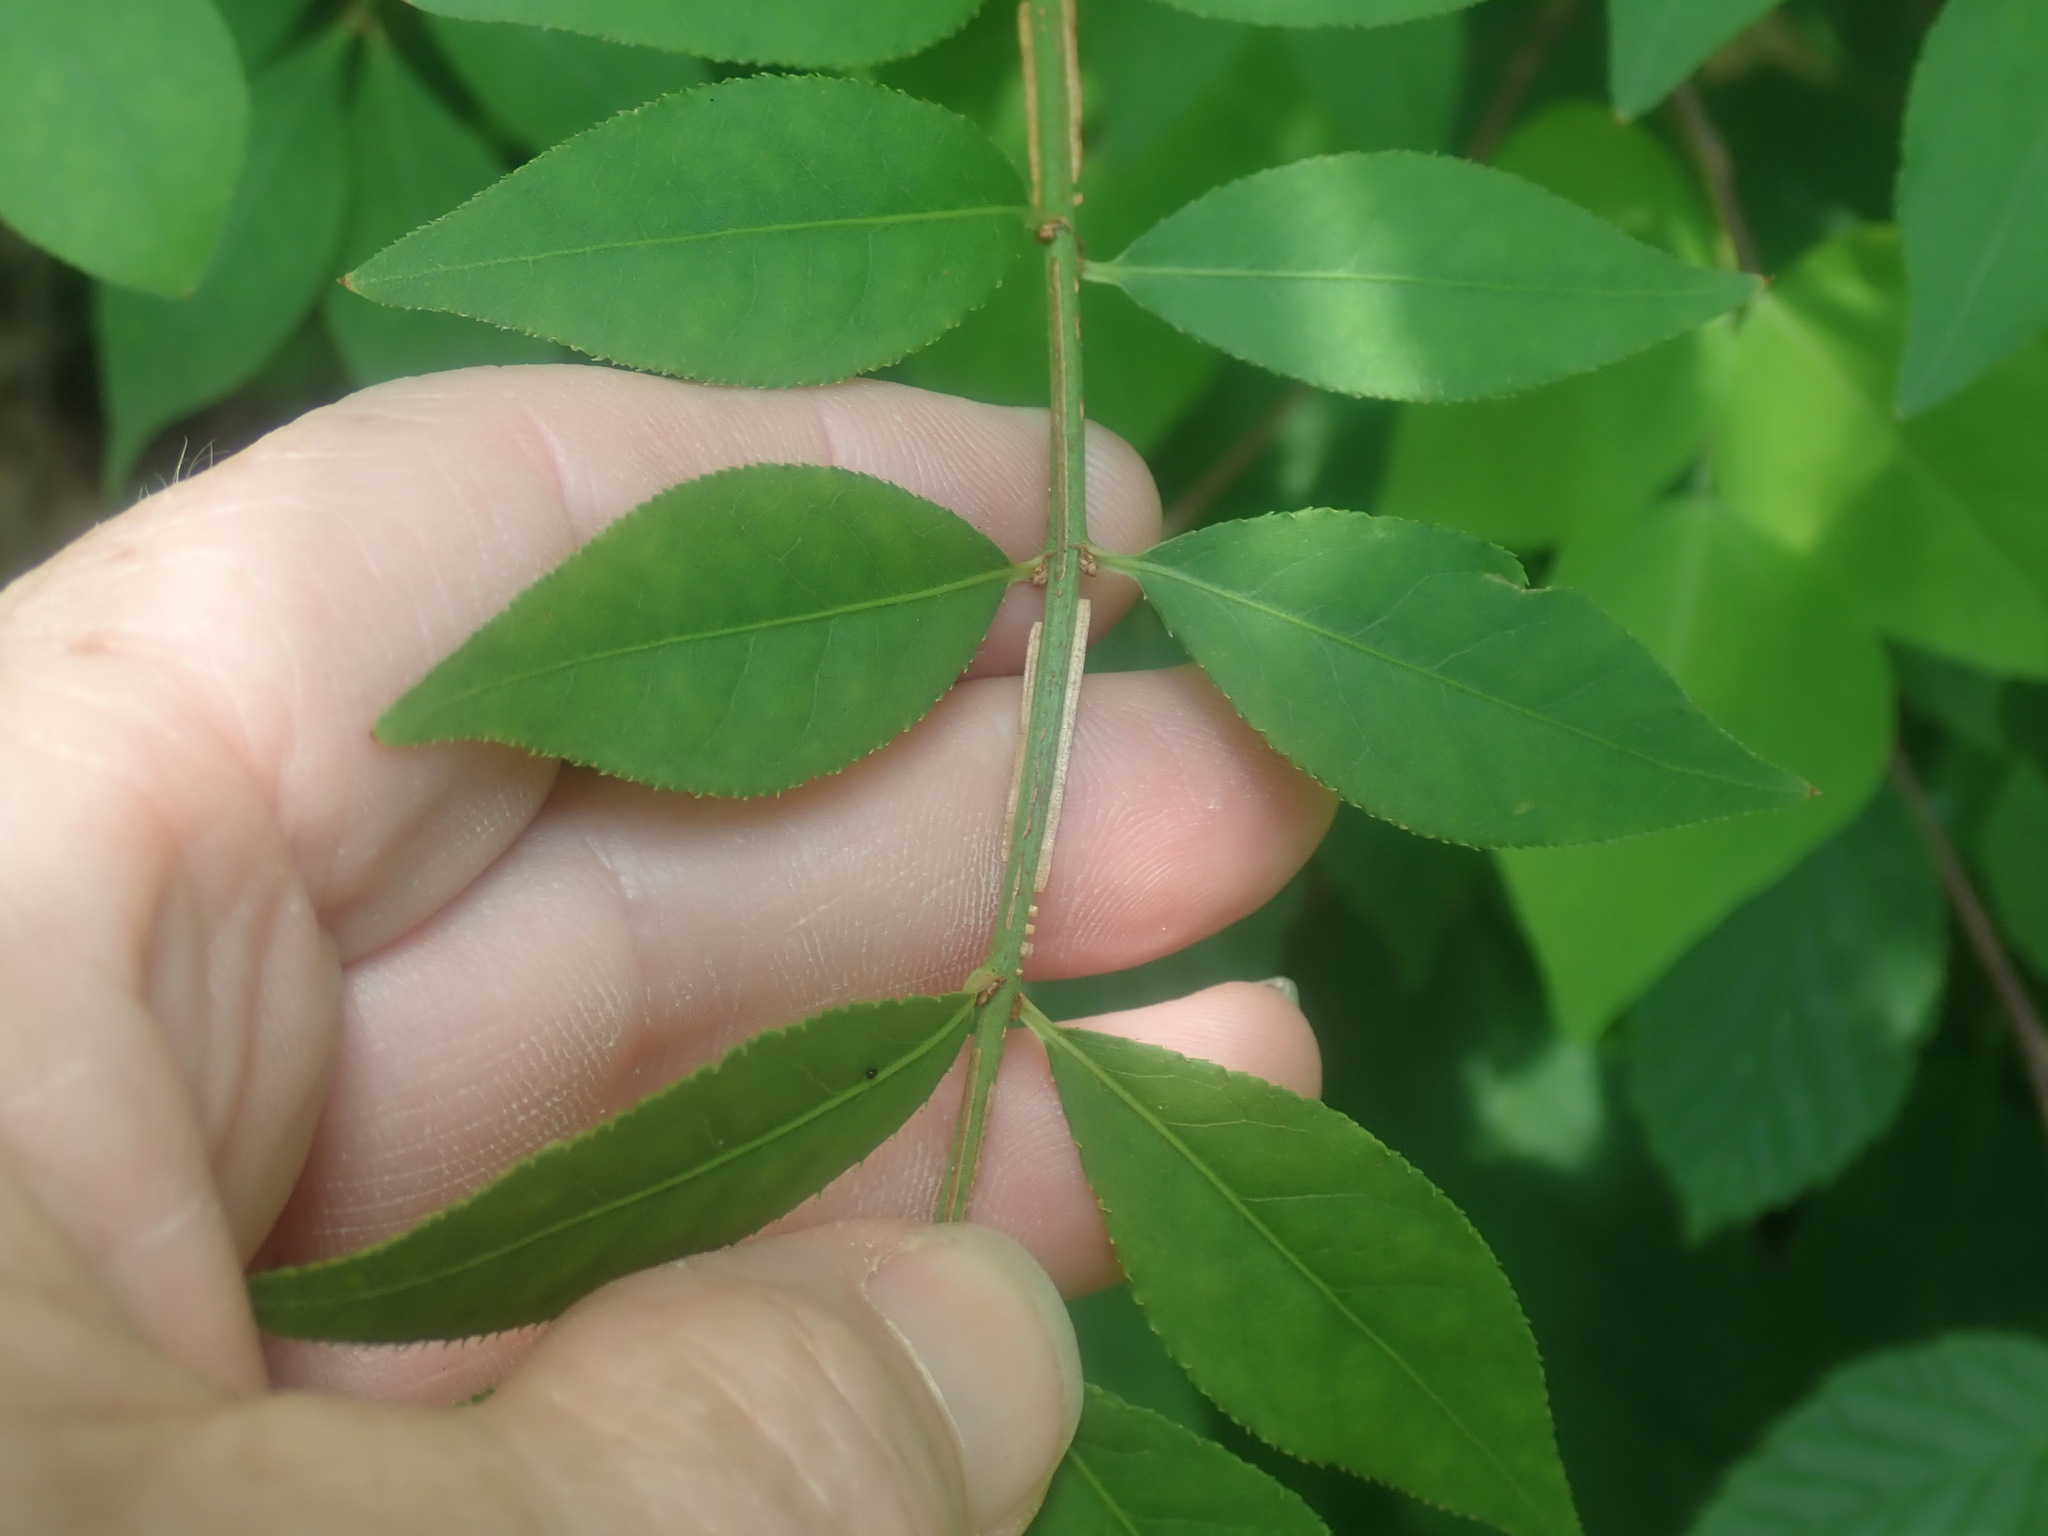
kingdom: Plantae
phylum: Tracheophyta
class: Magnoliopsida
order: Celastrales
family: Celastraceae
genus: Euonymus
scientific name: Euonymus alatus
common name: Winged euonymus
